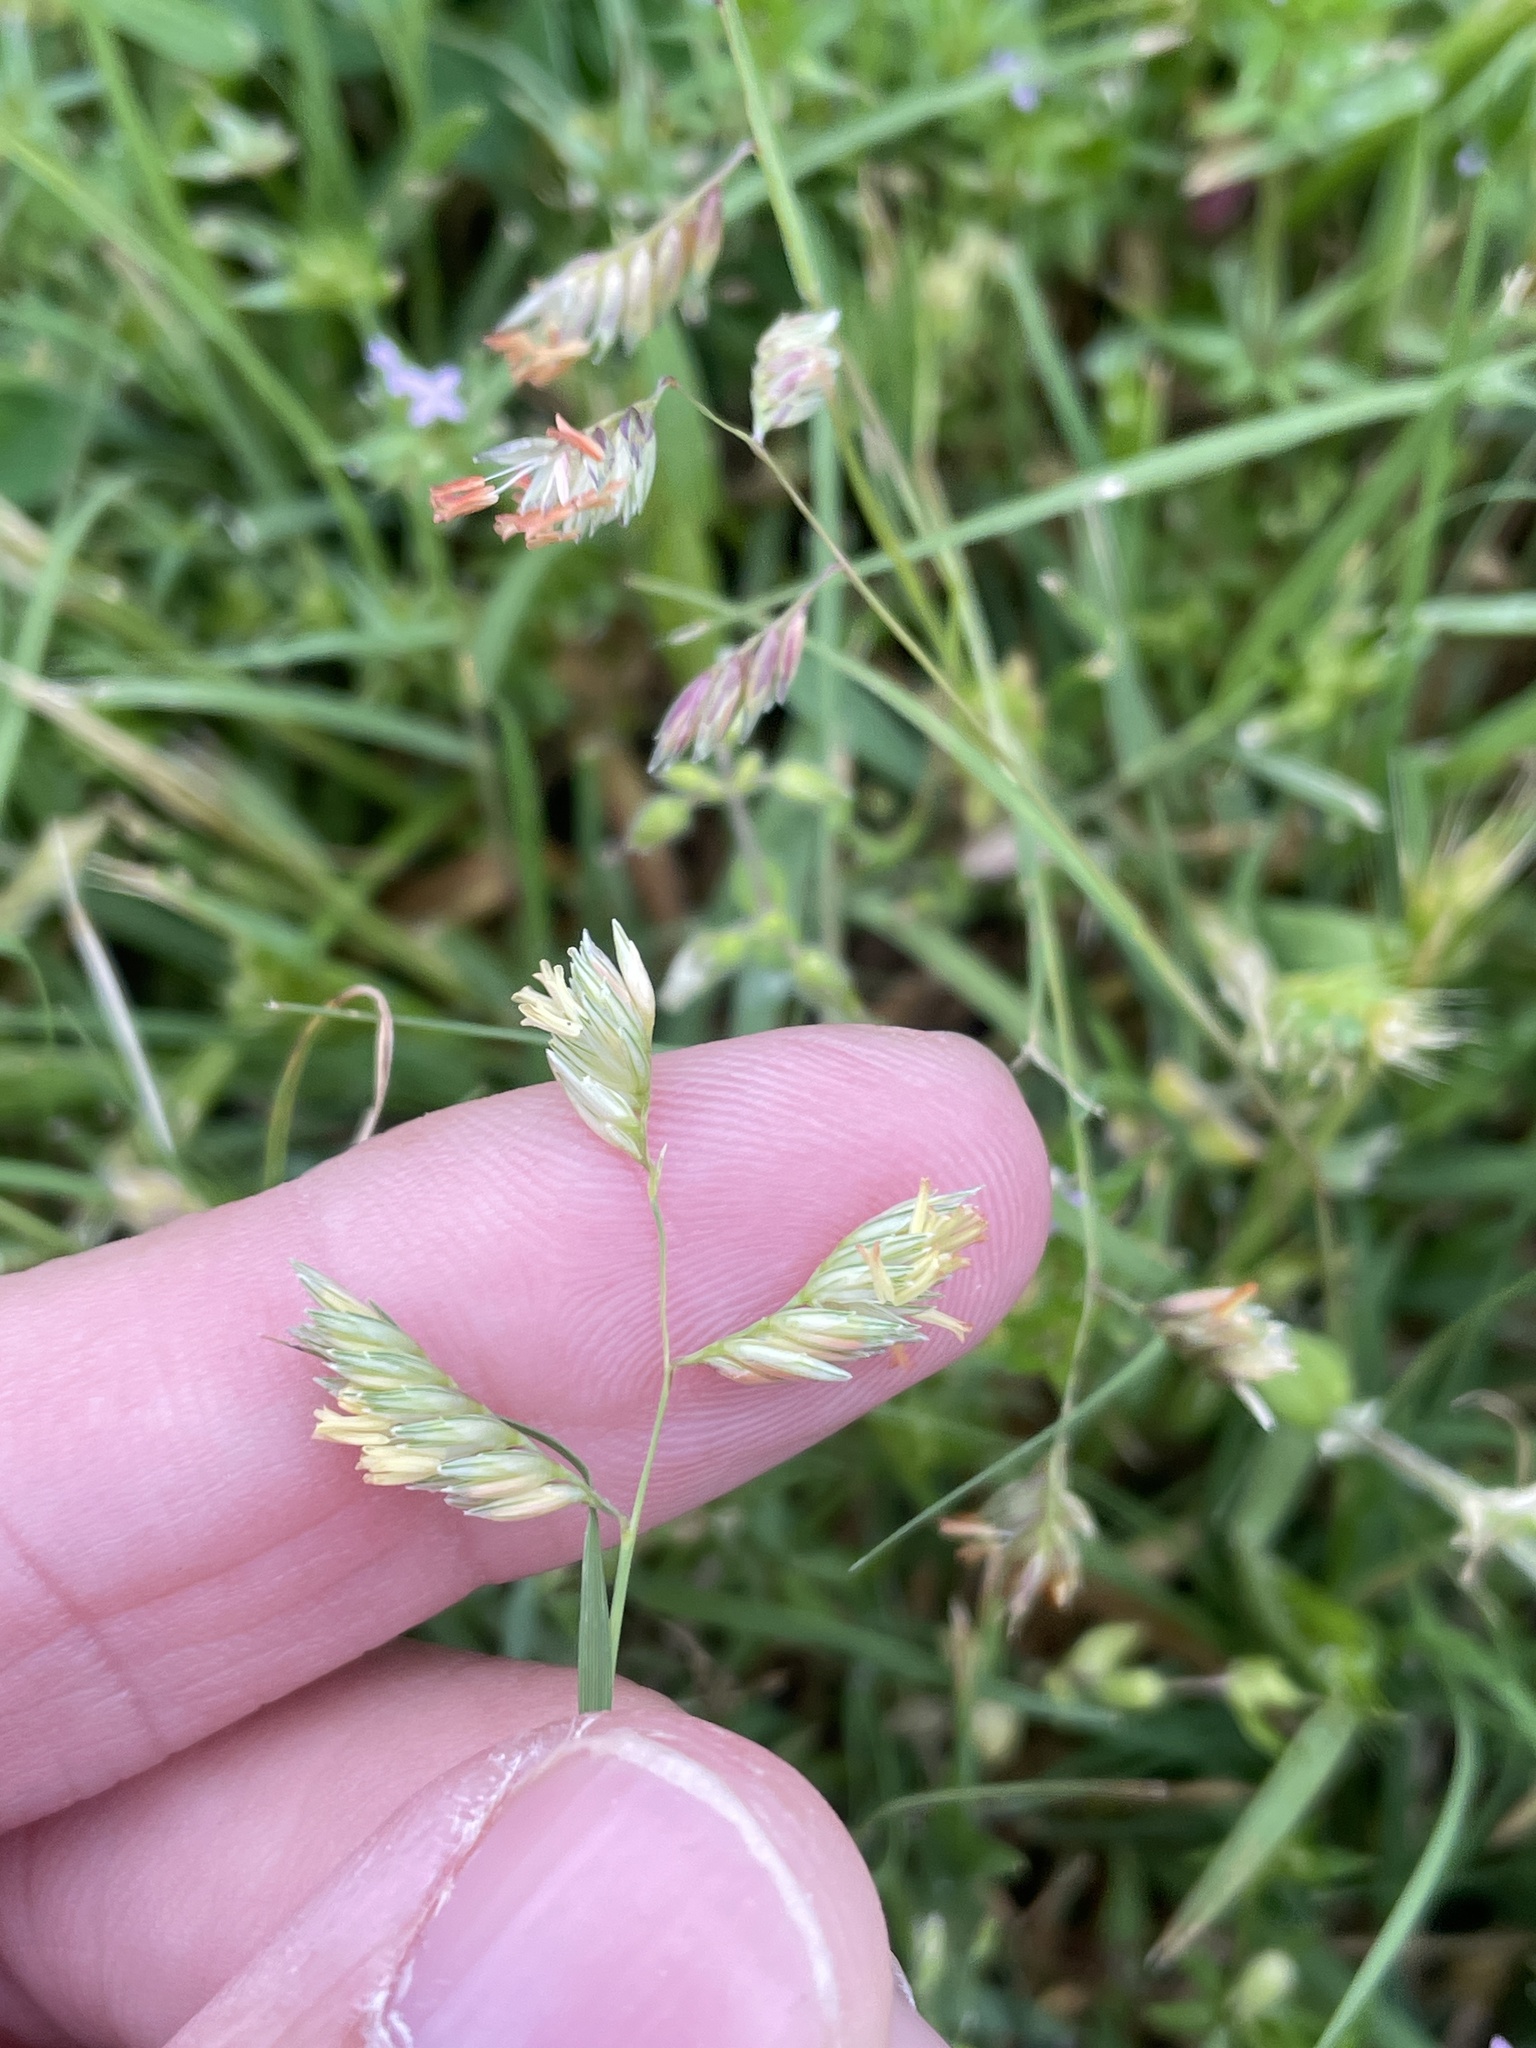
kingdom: Plantae
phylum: Tracheophyta
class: Liliopsida
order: Poales
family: Poaceae
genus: Bouteloua
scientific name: Bouteloua dactyloides
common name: Buffalo grass
